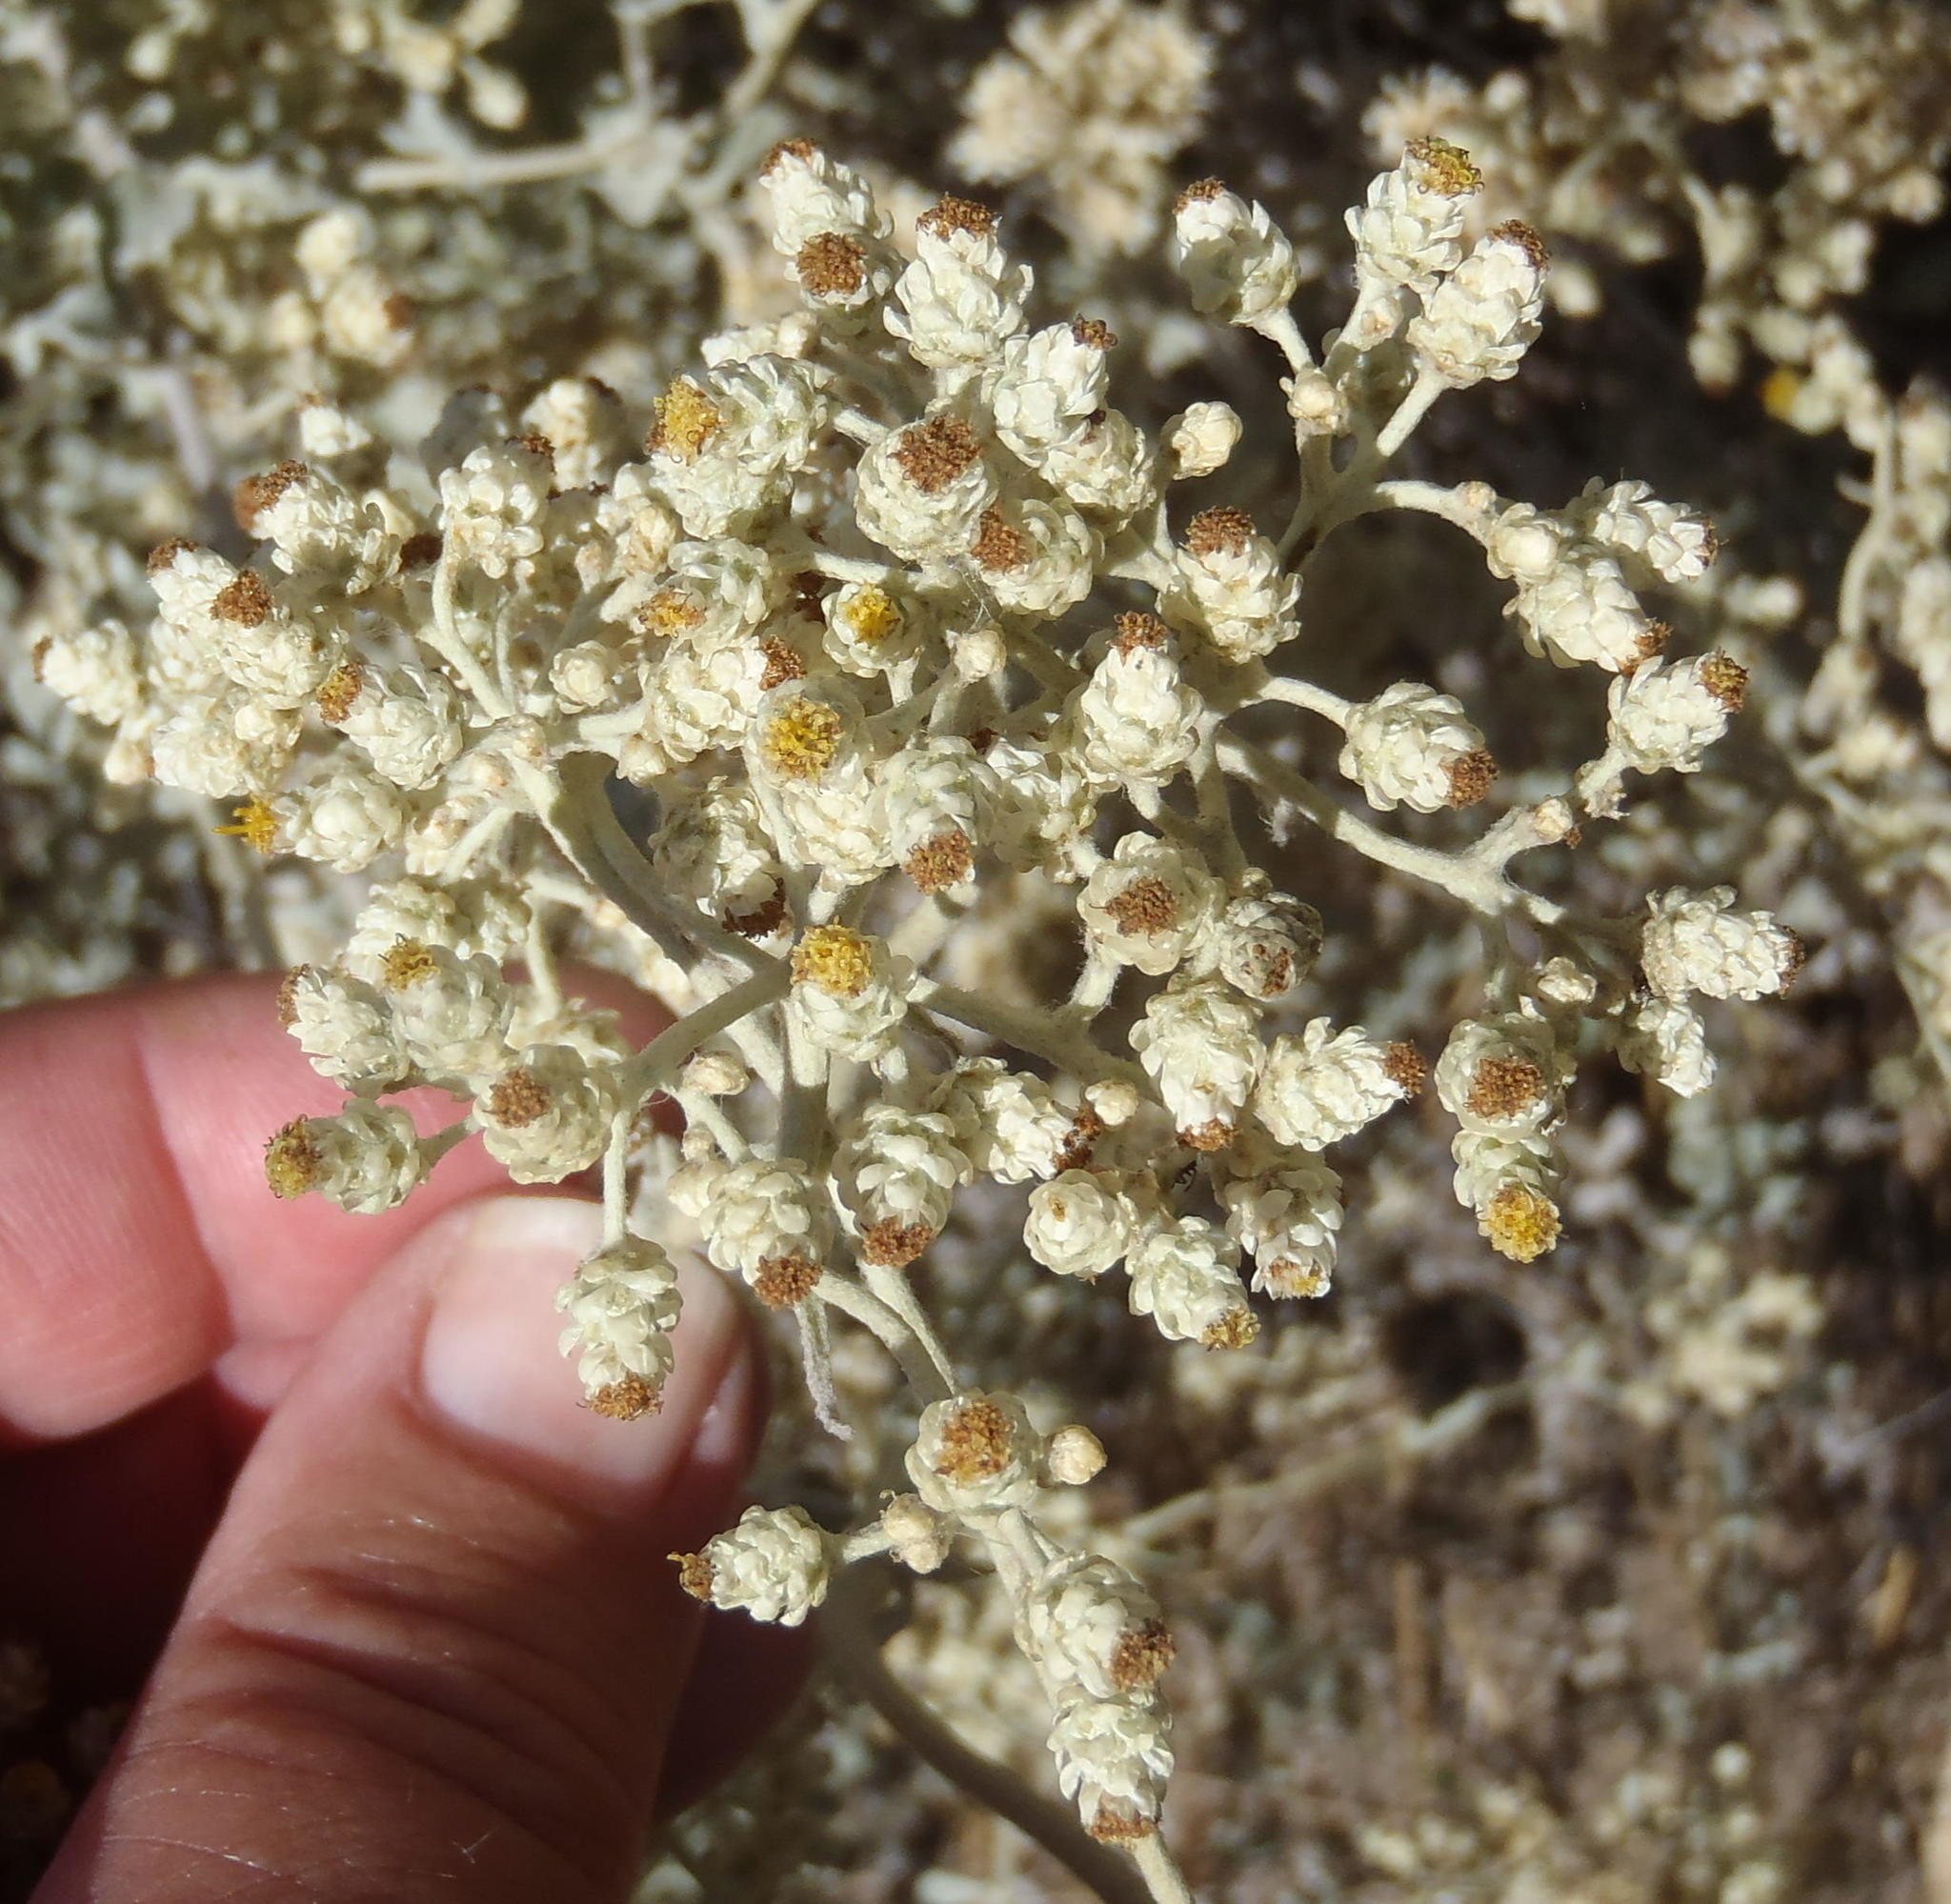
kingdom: Plantae
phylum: Tracheophyta
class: Magnoliopsida
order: Asterales
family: Asteraceae
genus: Helichrysum
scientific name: Helichrysum patulum
